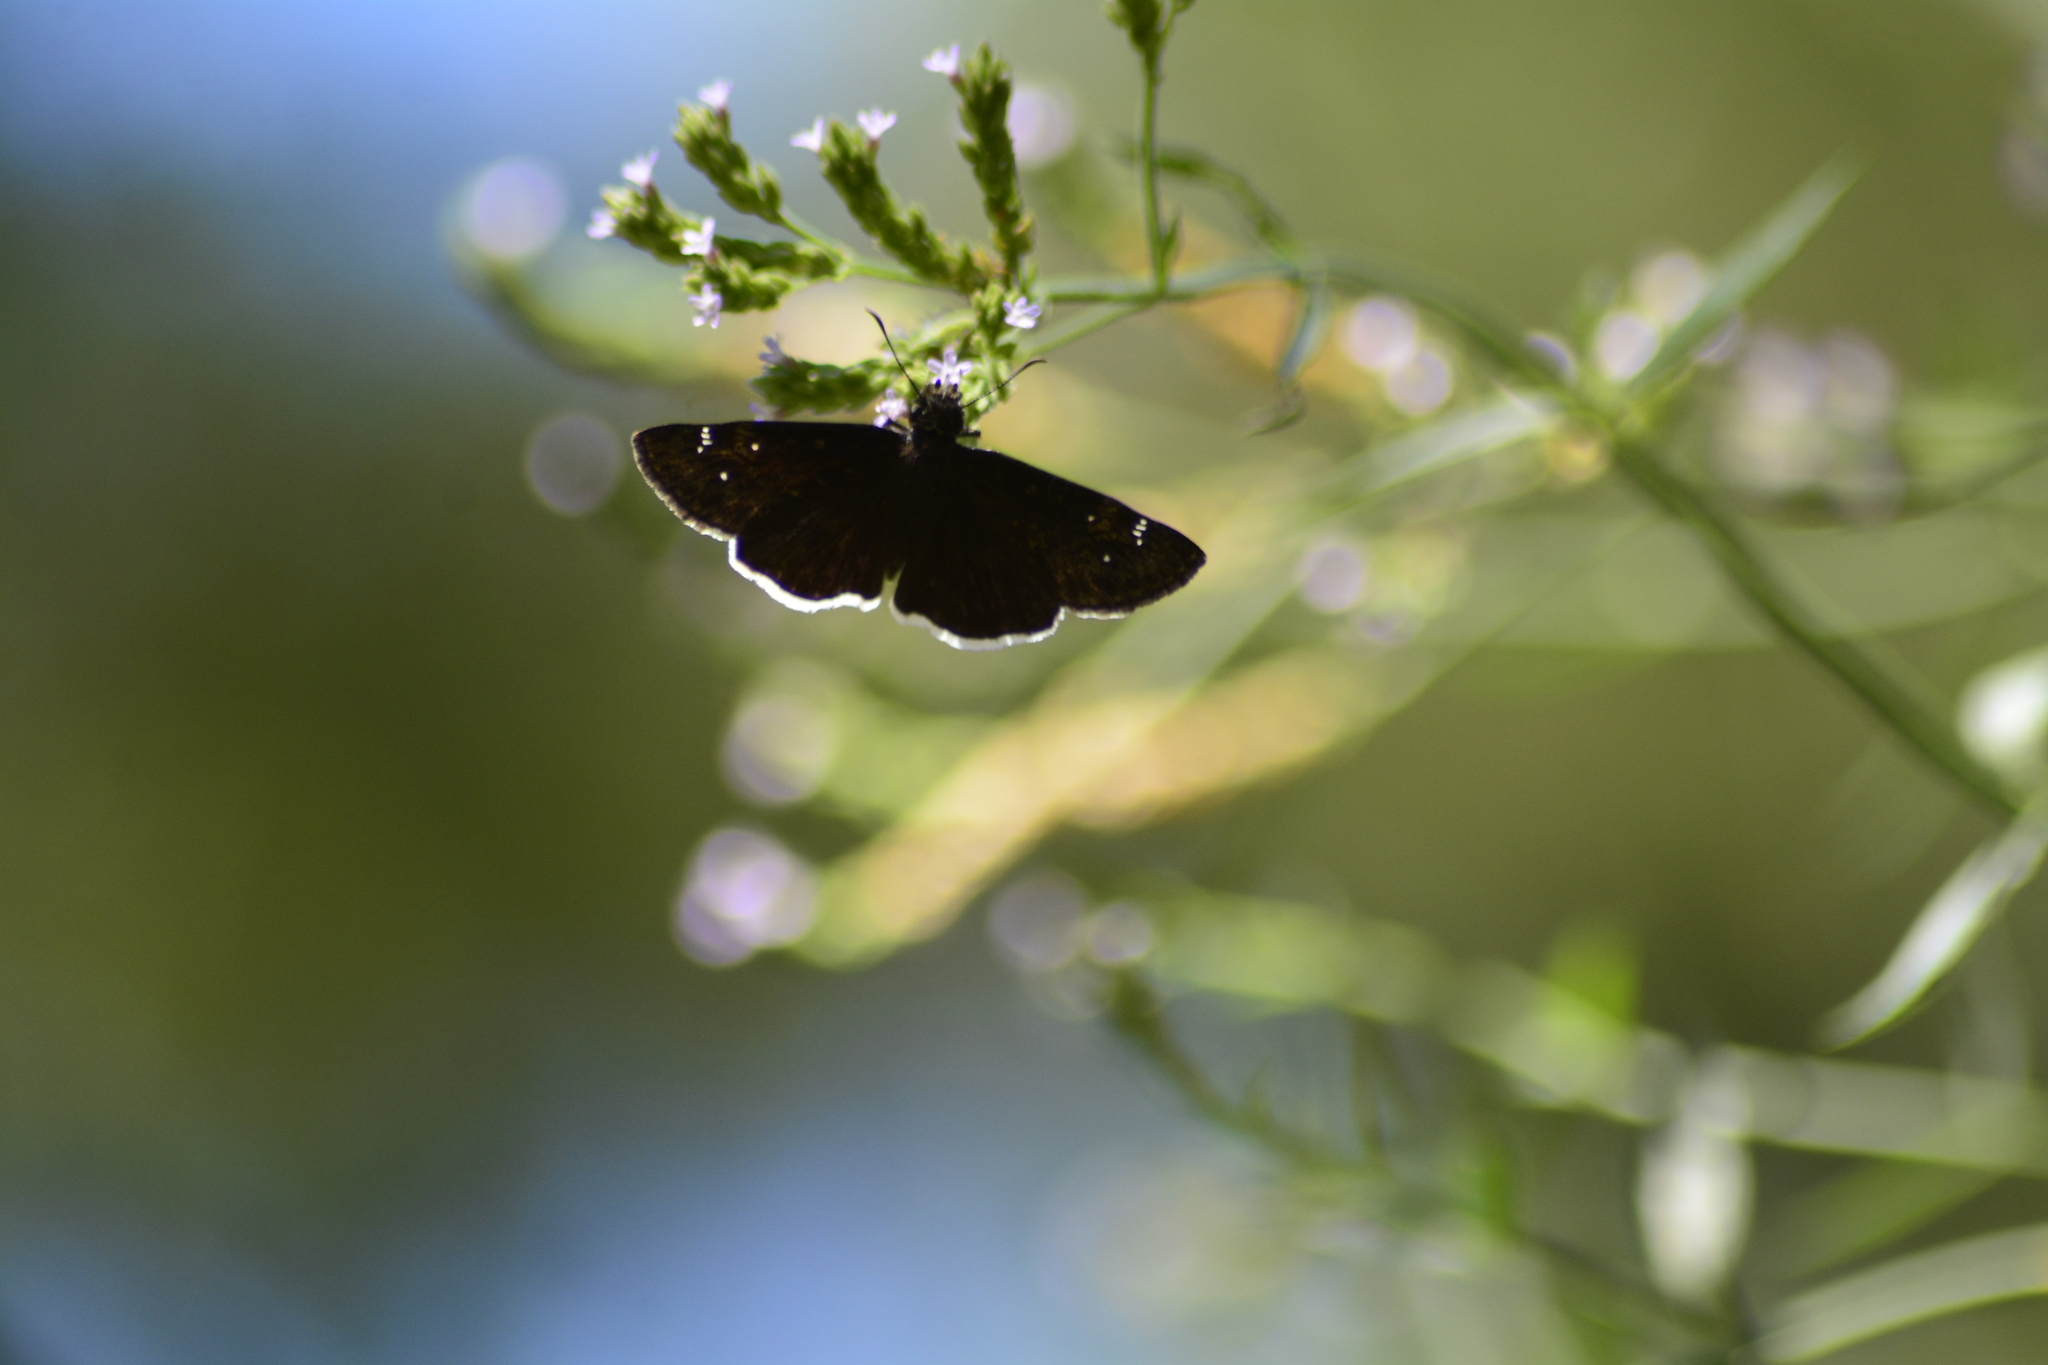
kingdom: Animalia
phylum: Arthropoda
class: Insecta
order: Lepidoptera
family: Hesperiidae
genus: Erynnis
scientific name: Erynnis funeralis
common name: Funereal duskywing
